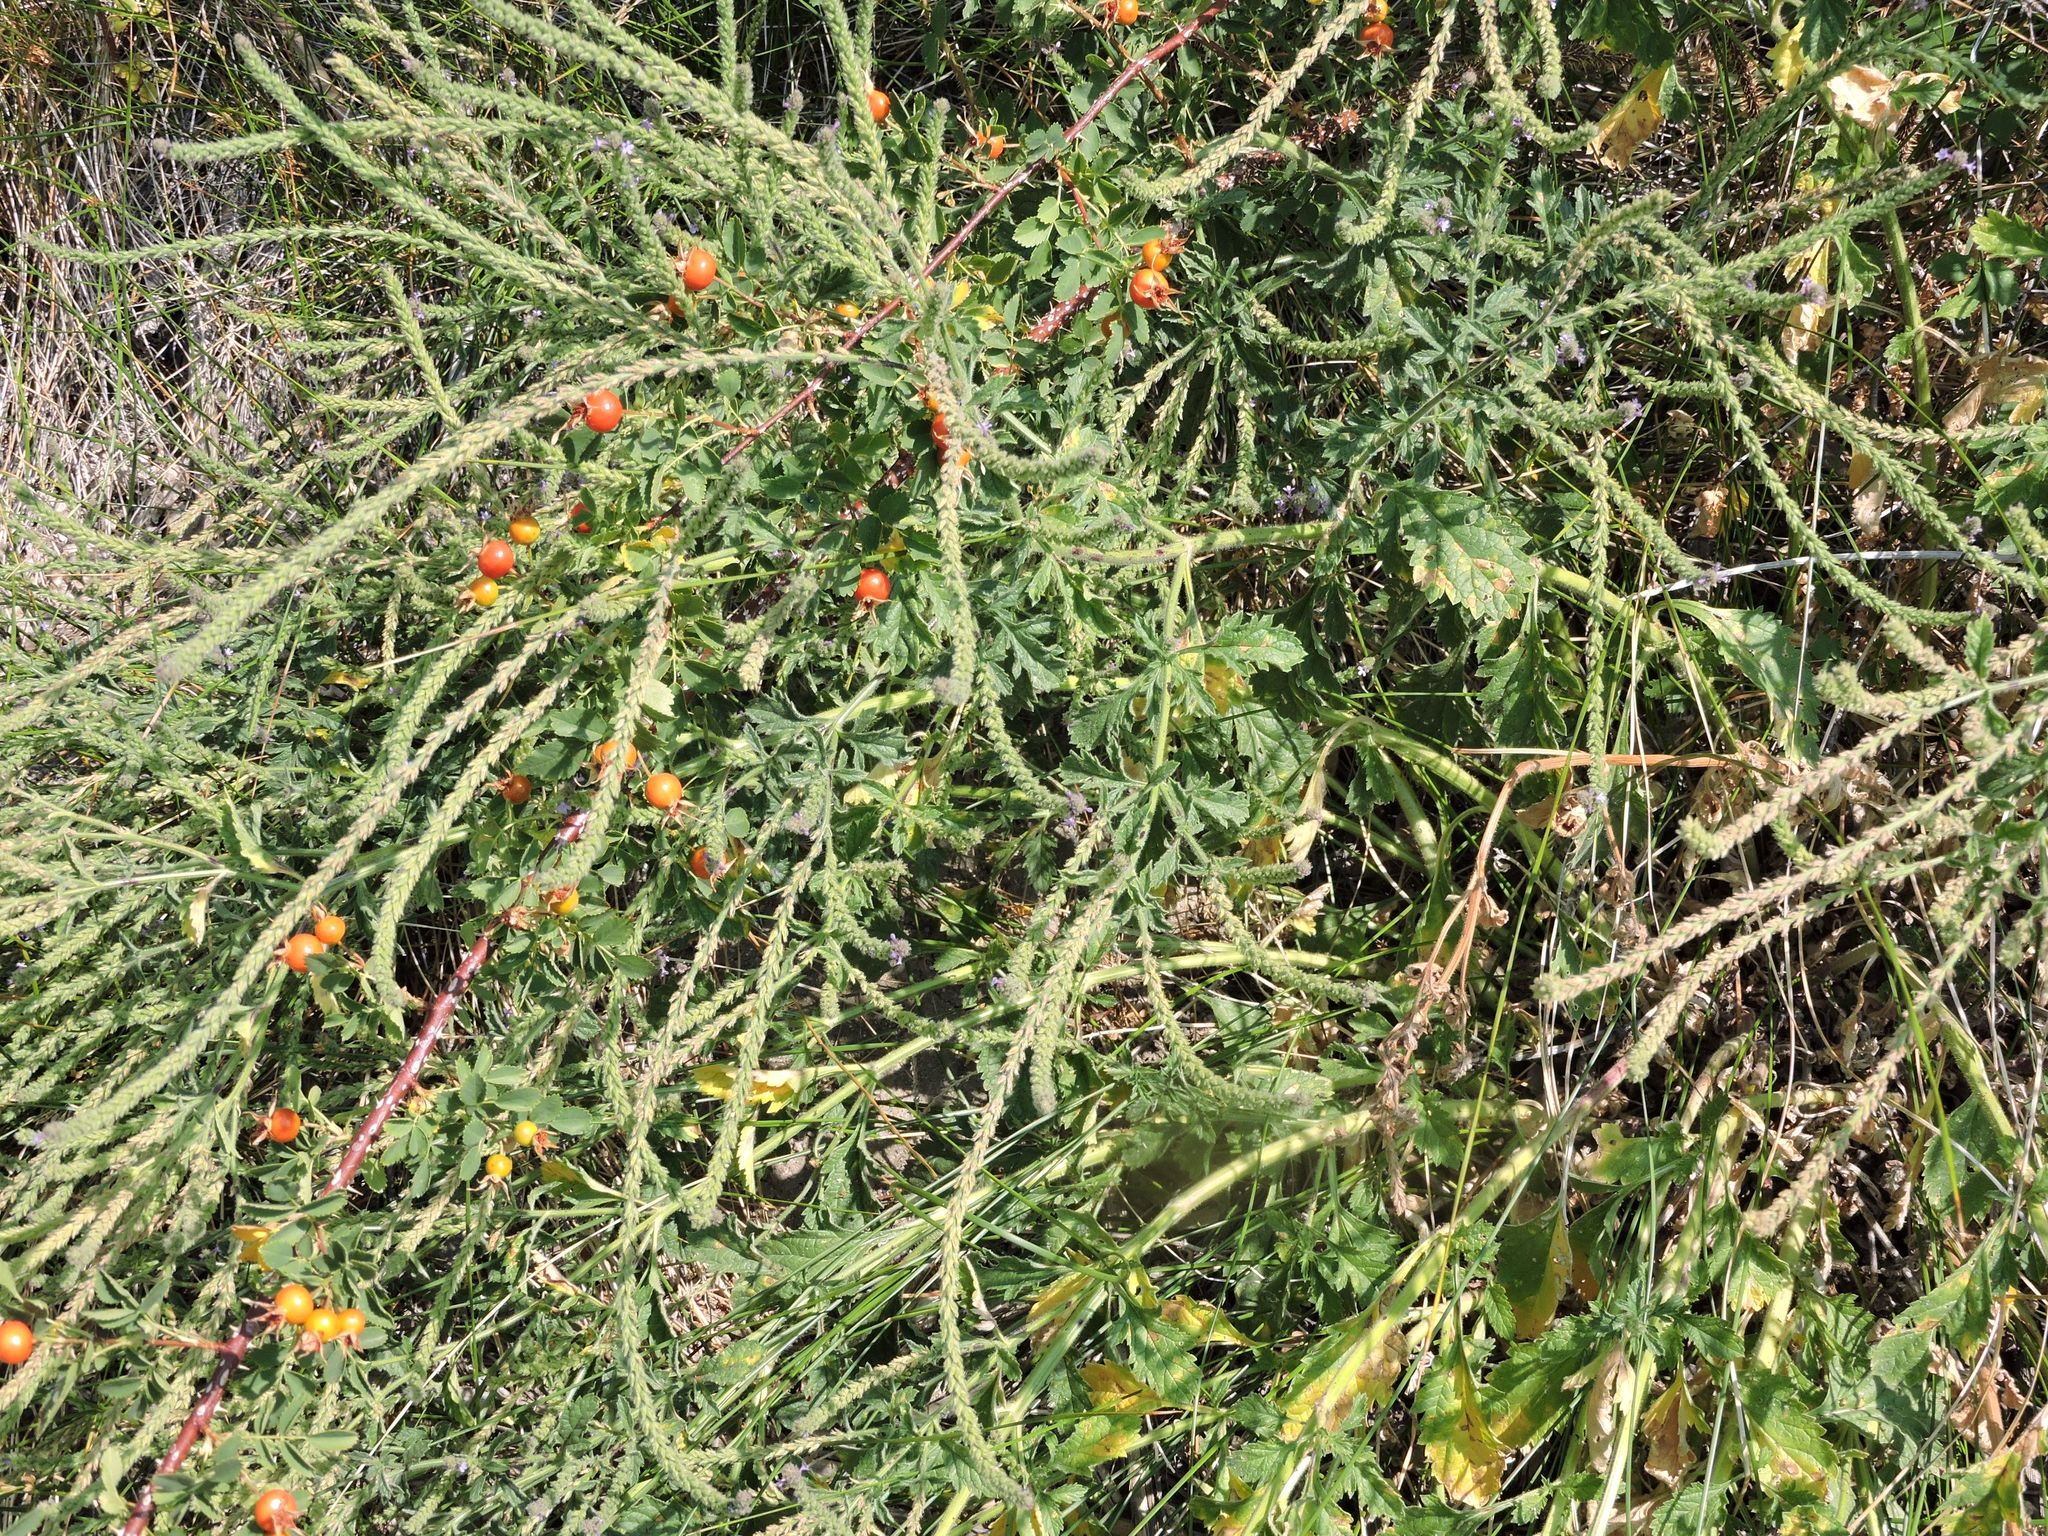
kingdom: Plantae
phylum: Tracheophyta
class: Magnoliopsida
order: Lamiales
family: Verbenaceae
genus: Verbena
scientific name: Verbena lasiostachys
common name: Vervain
